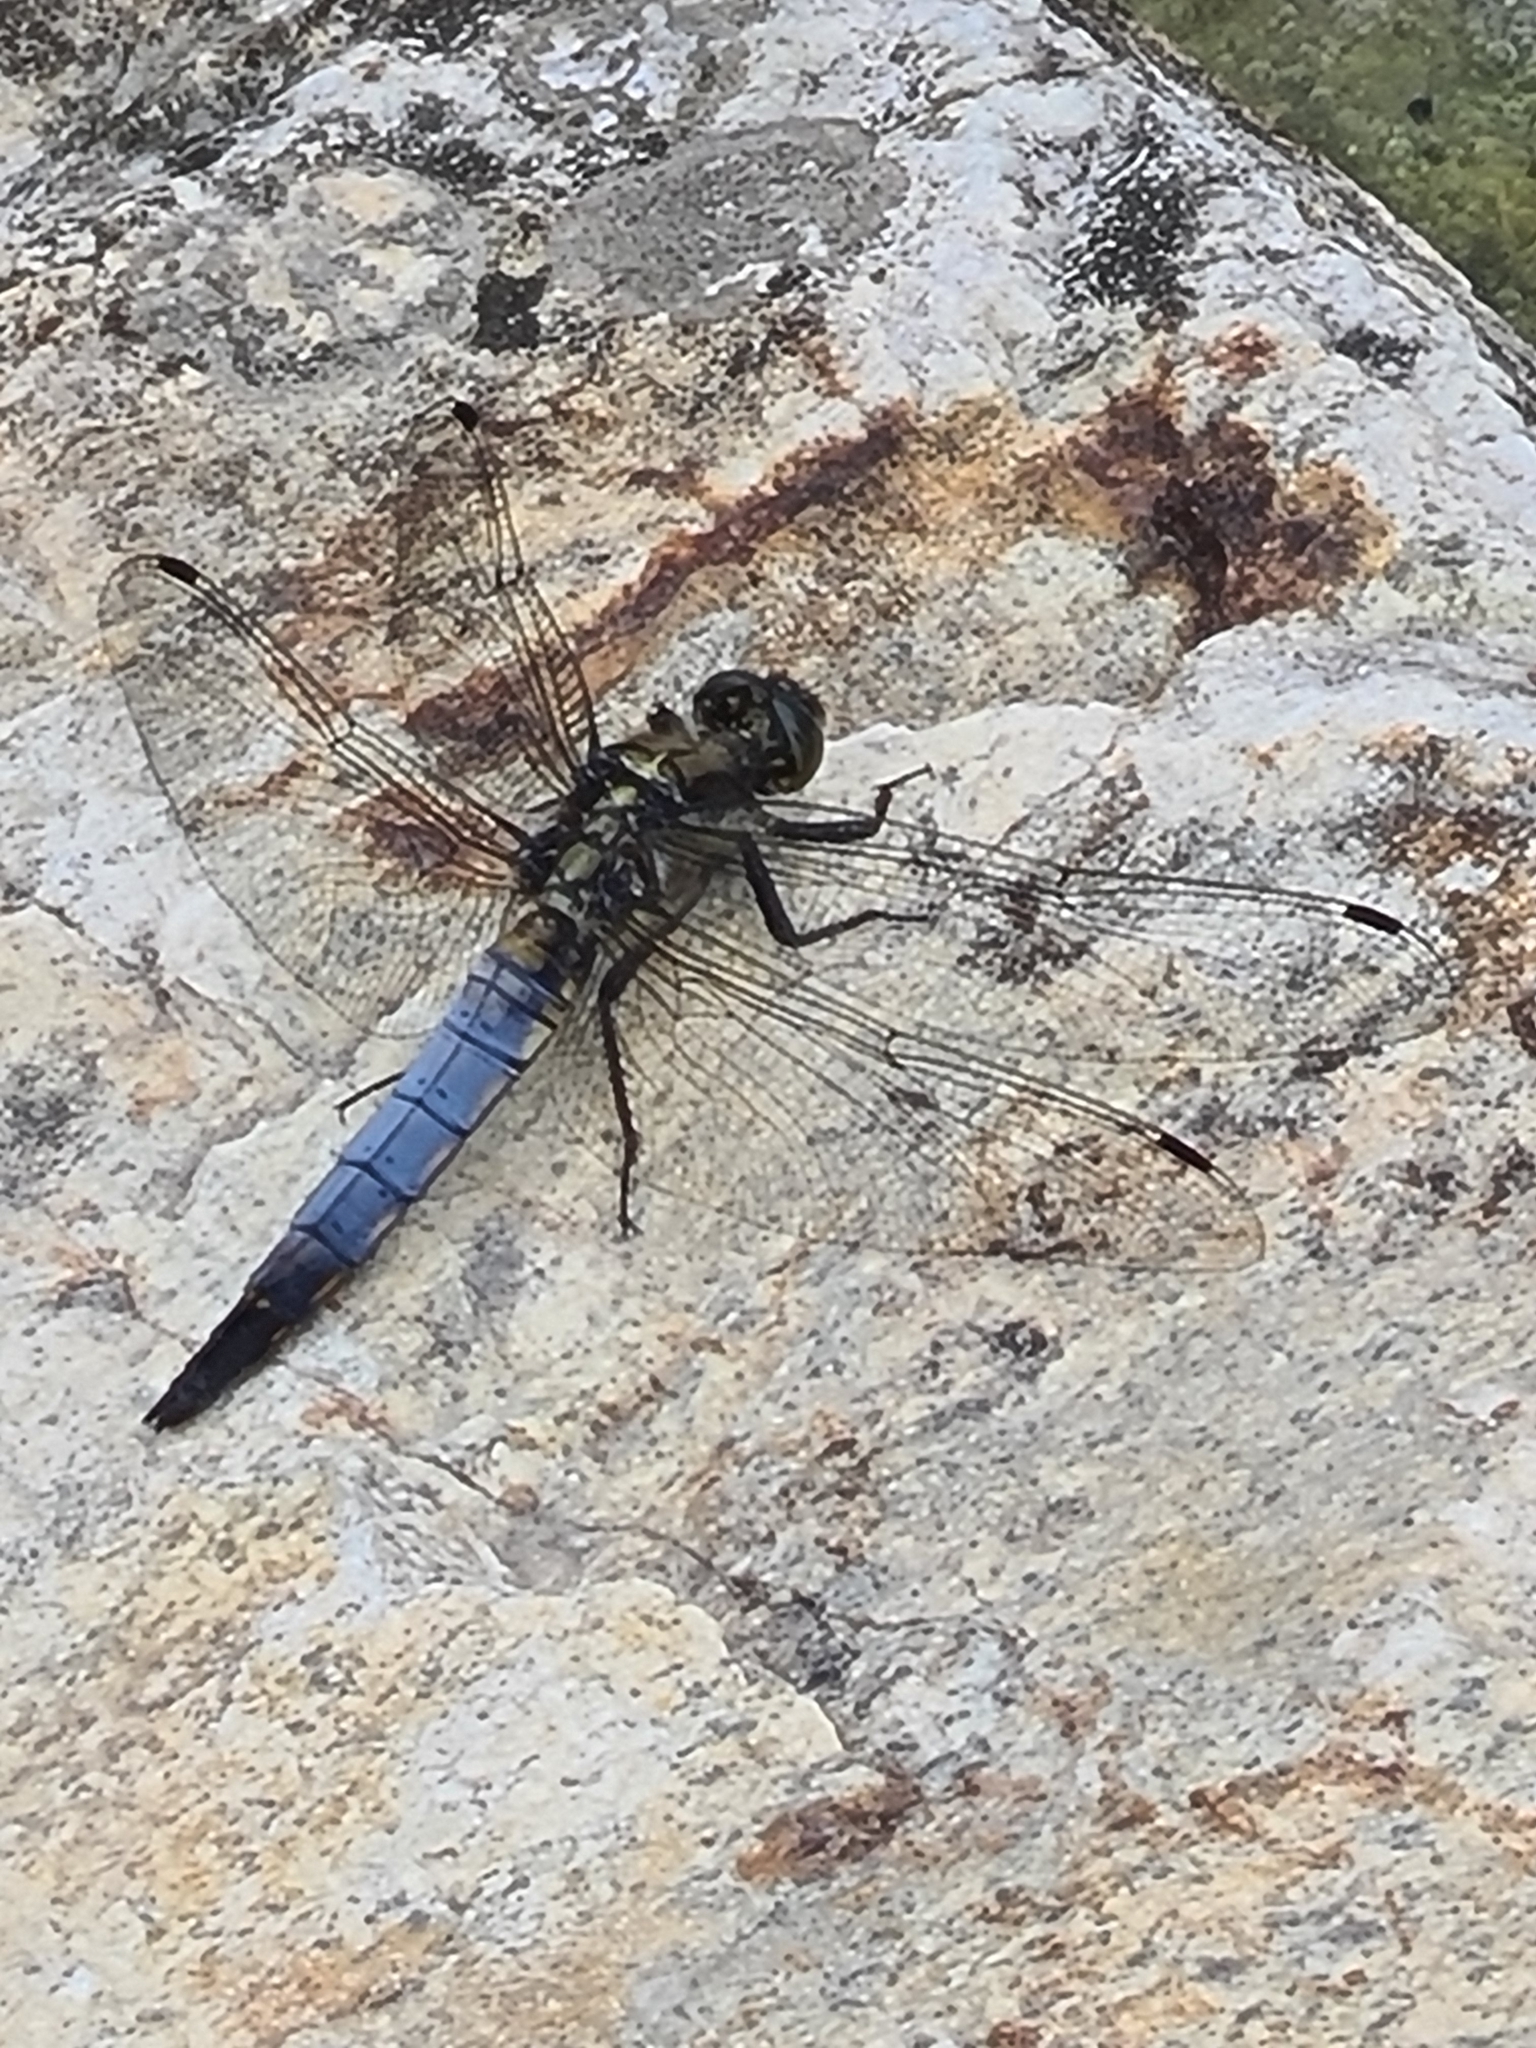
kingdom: Animalia
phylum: Arthropoda
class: Insecta
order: Odonata
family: Libellulidae
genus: Orthetrum
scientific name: Orthetrum cancellatum
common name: Black-tailed skimmer
